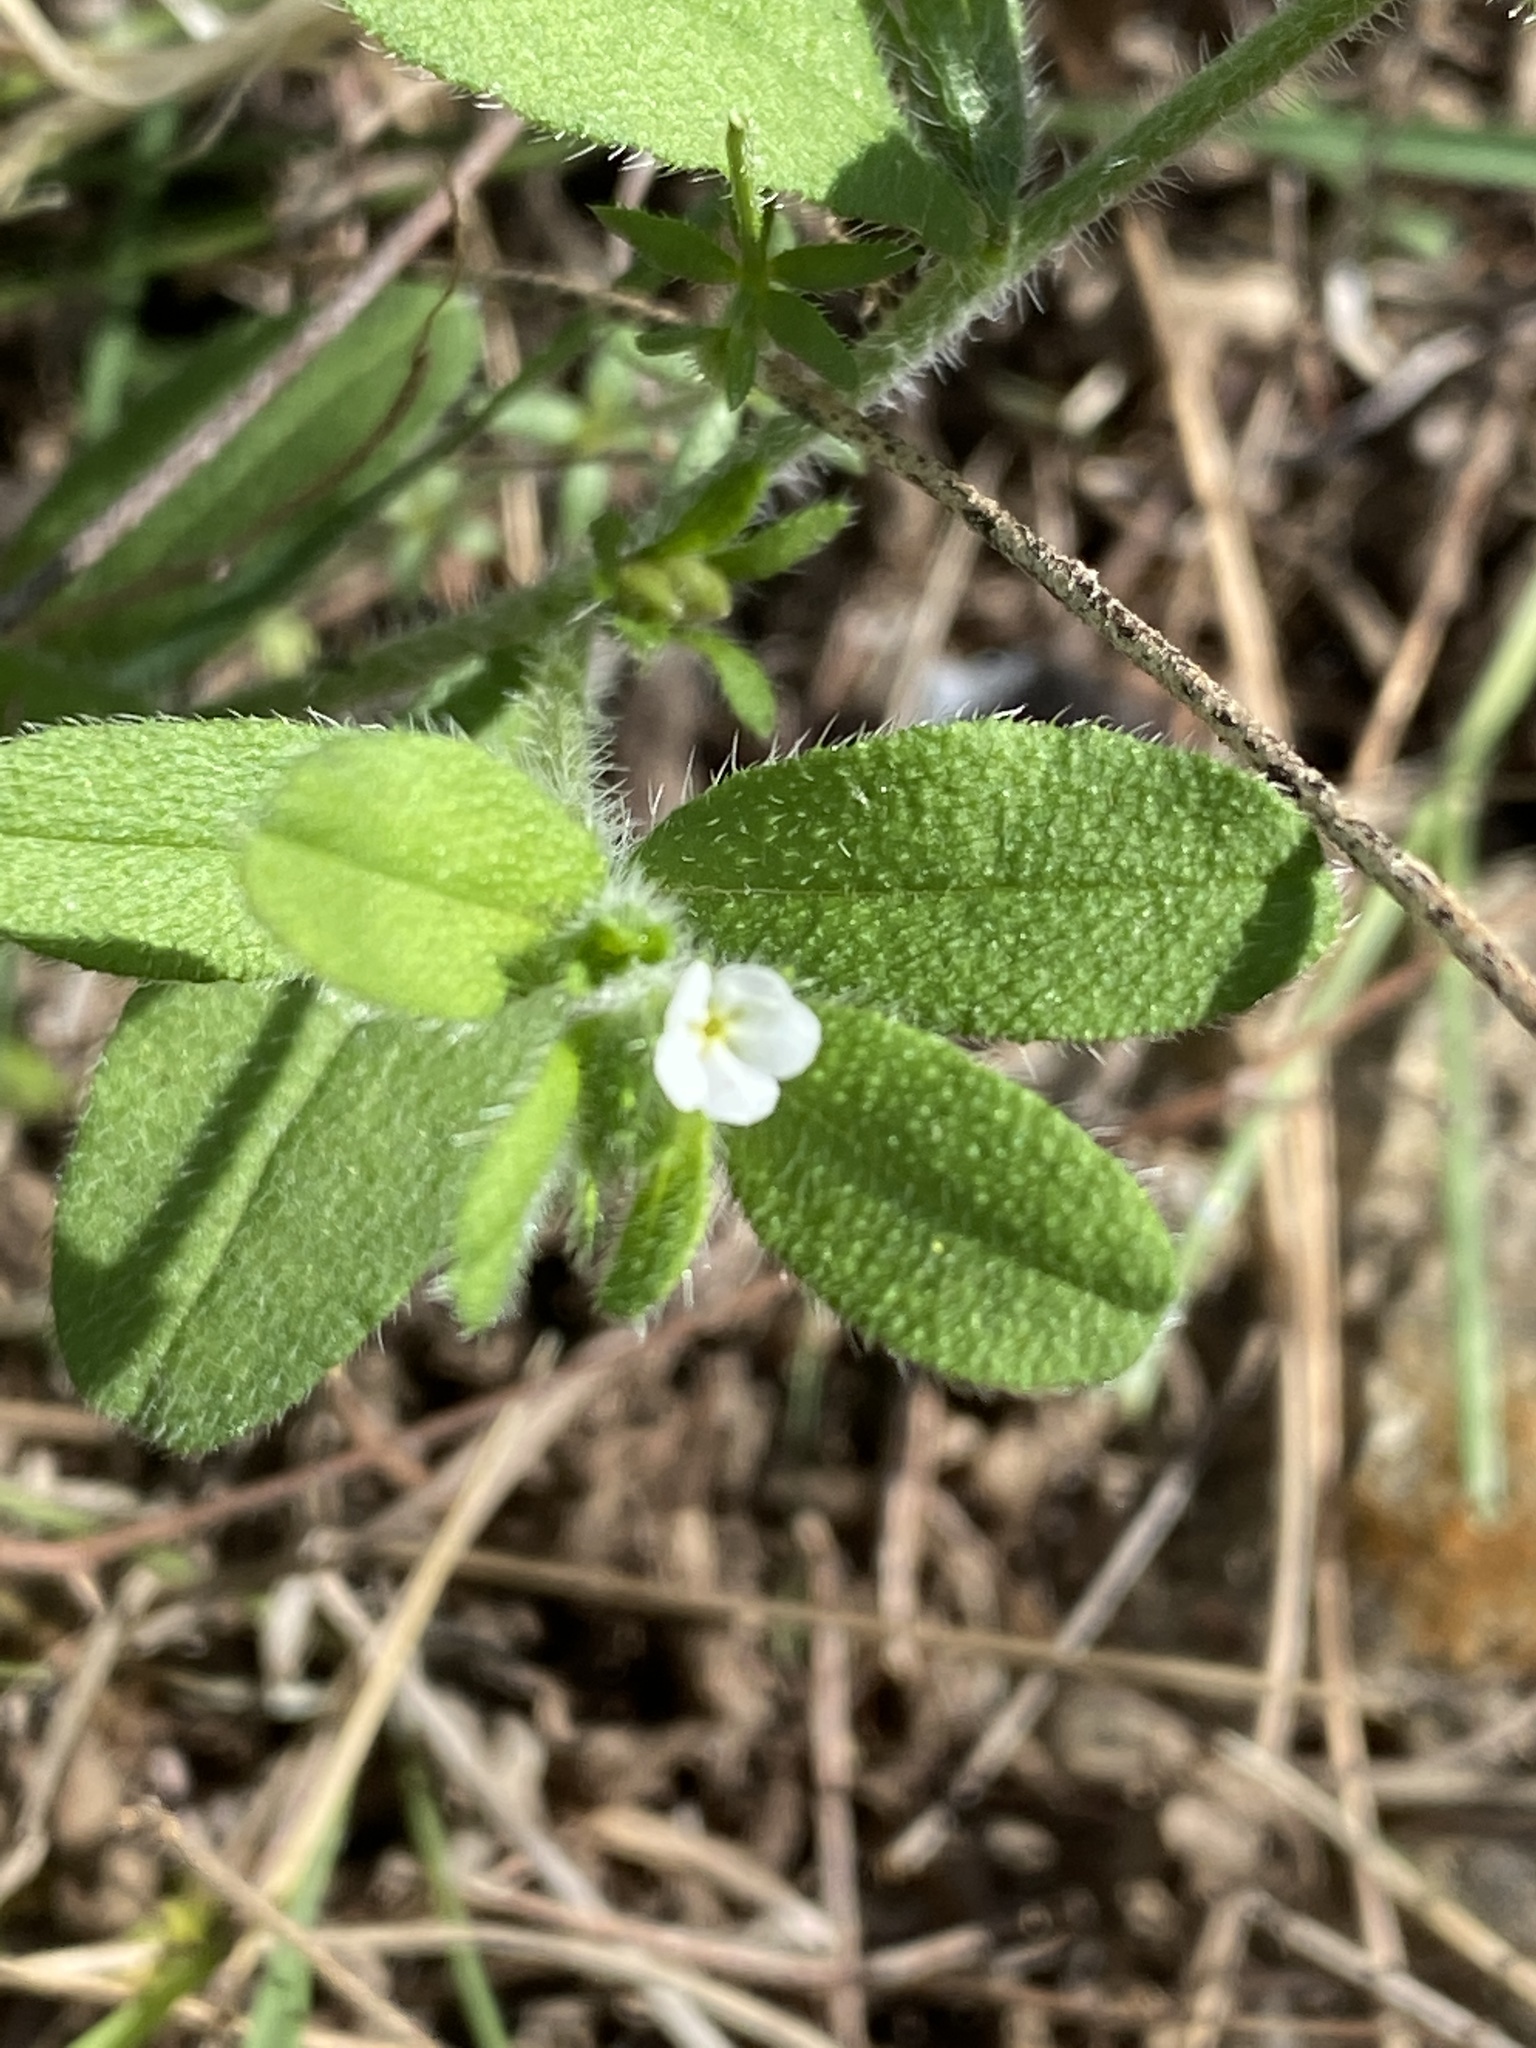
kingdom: Plantae
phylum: Tracheophyta
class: Magnoliopsida
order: Boraginales
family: Boraginaceae
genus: Lithospermum
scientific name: Lithospermum matamorense
